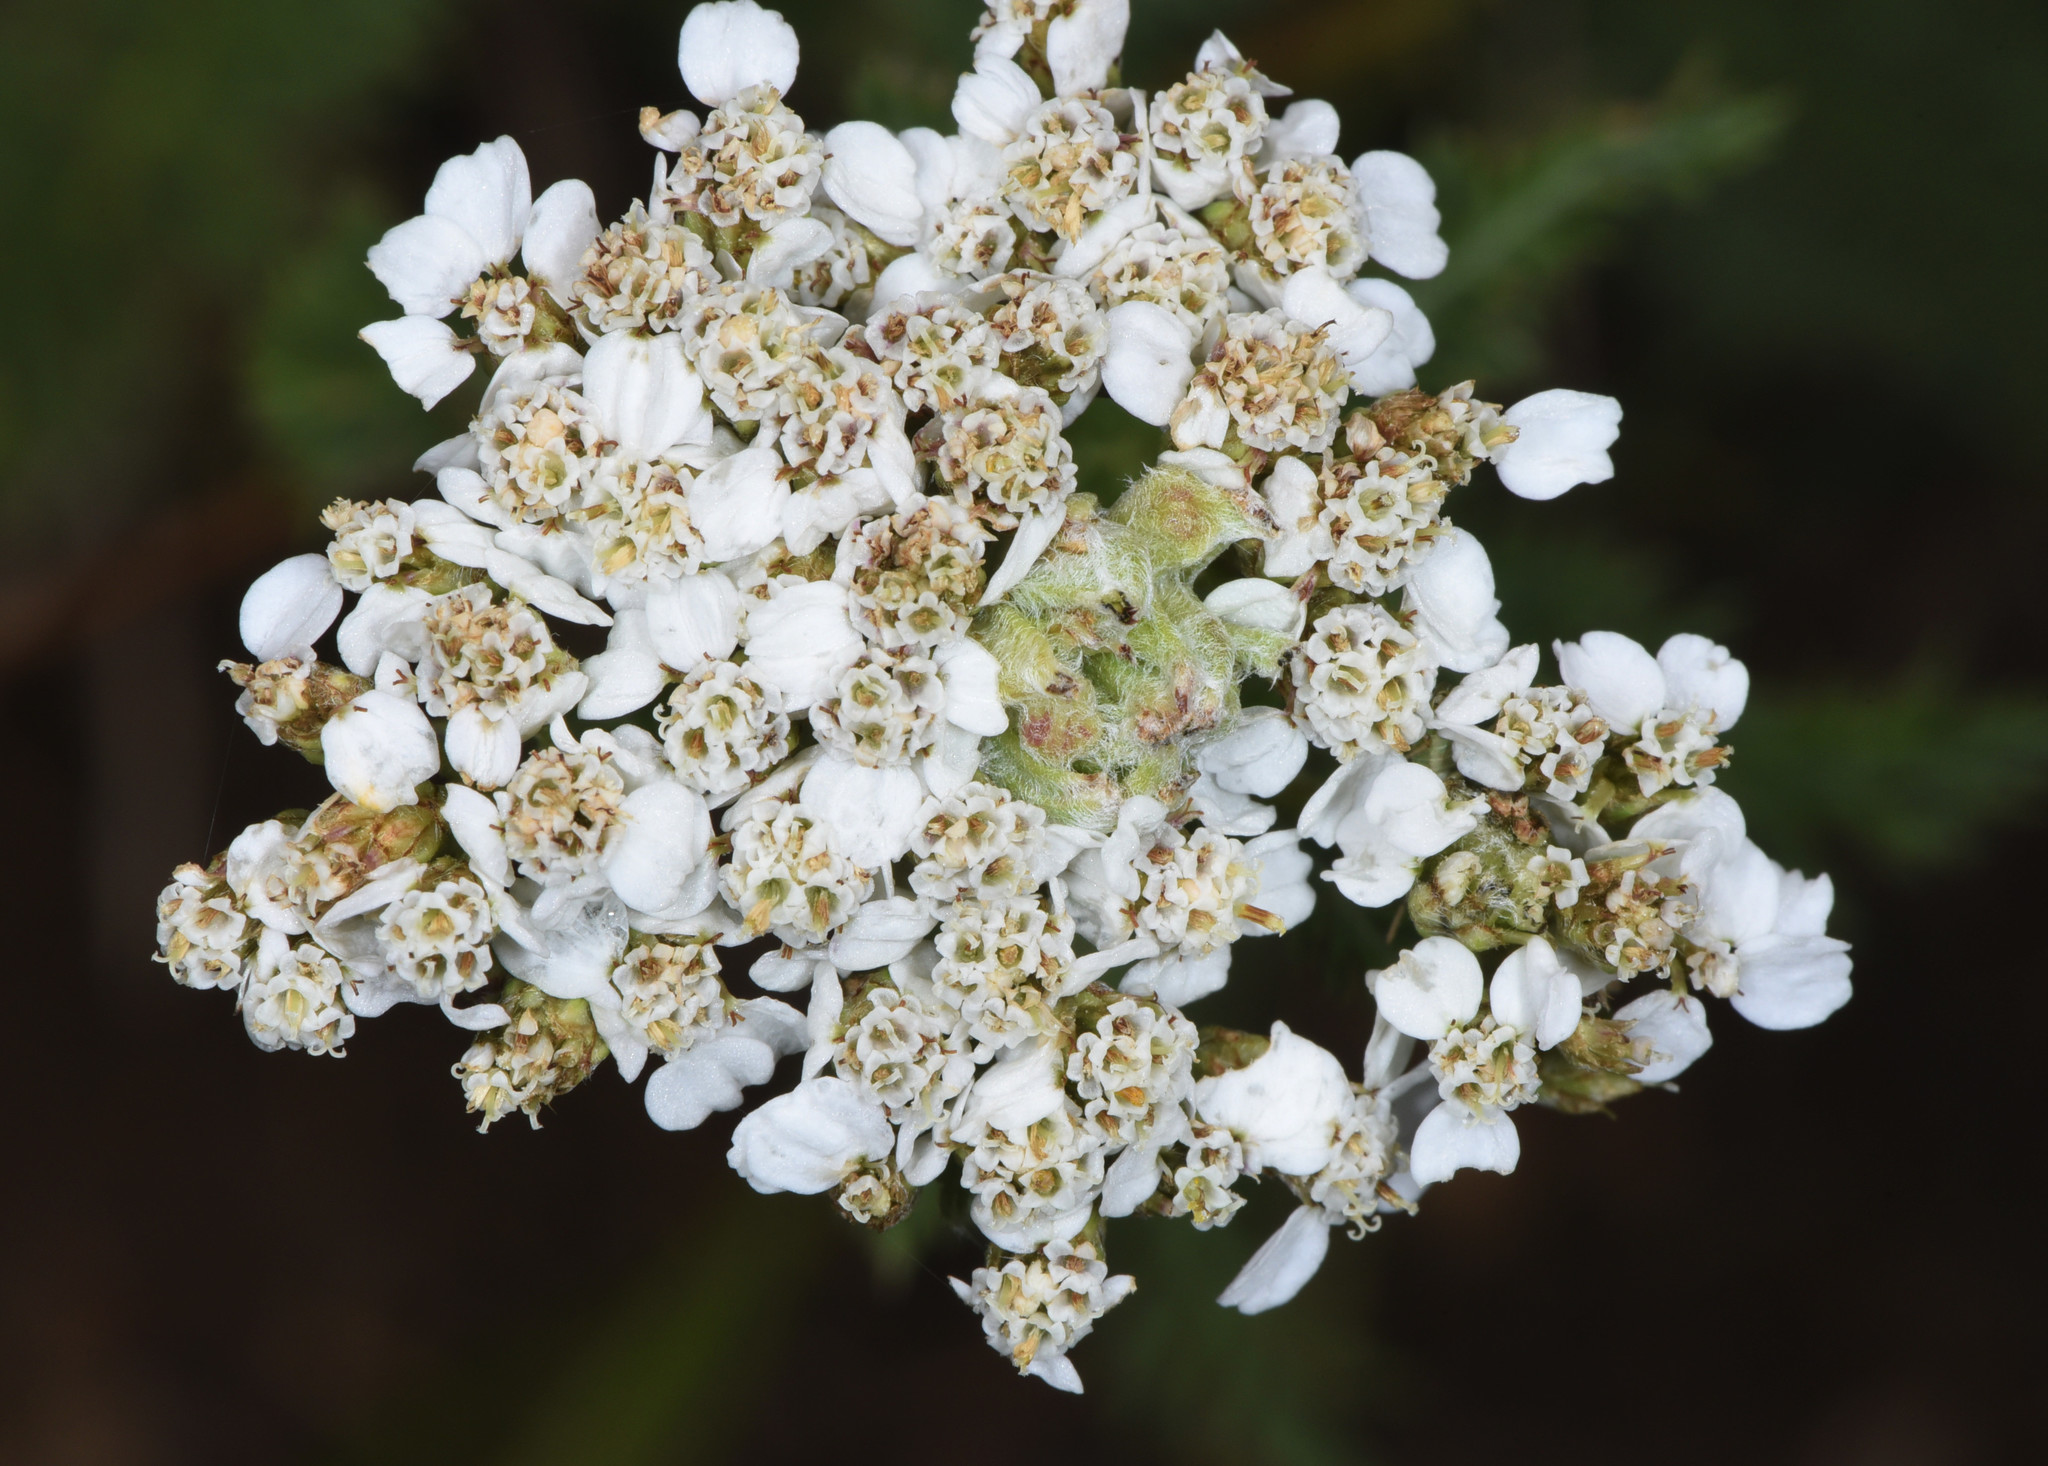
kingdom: Plantae
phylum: Tracheophyta
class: Magnoliopsida
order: Asterales
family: Asteraceae
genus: Achillea
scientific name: Achillea millefolium
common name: Yarrow
